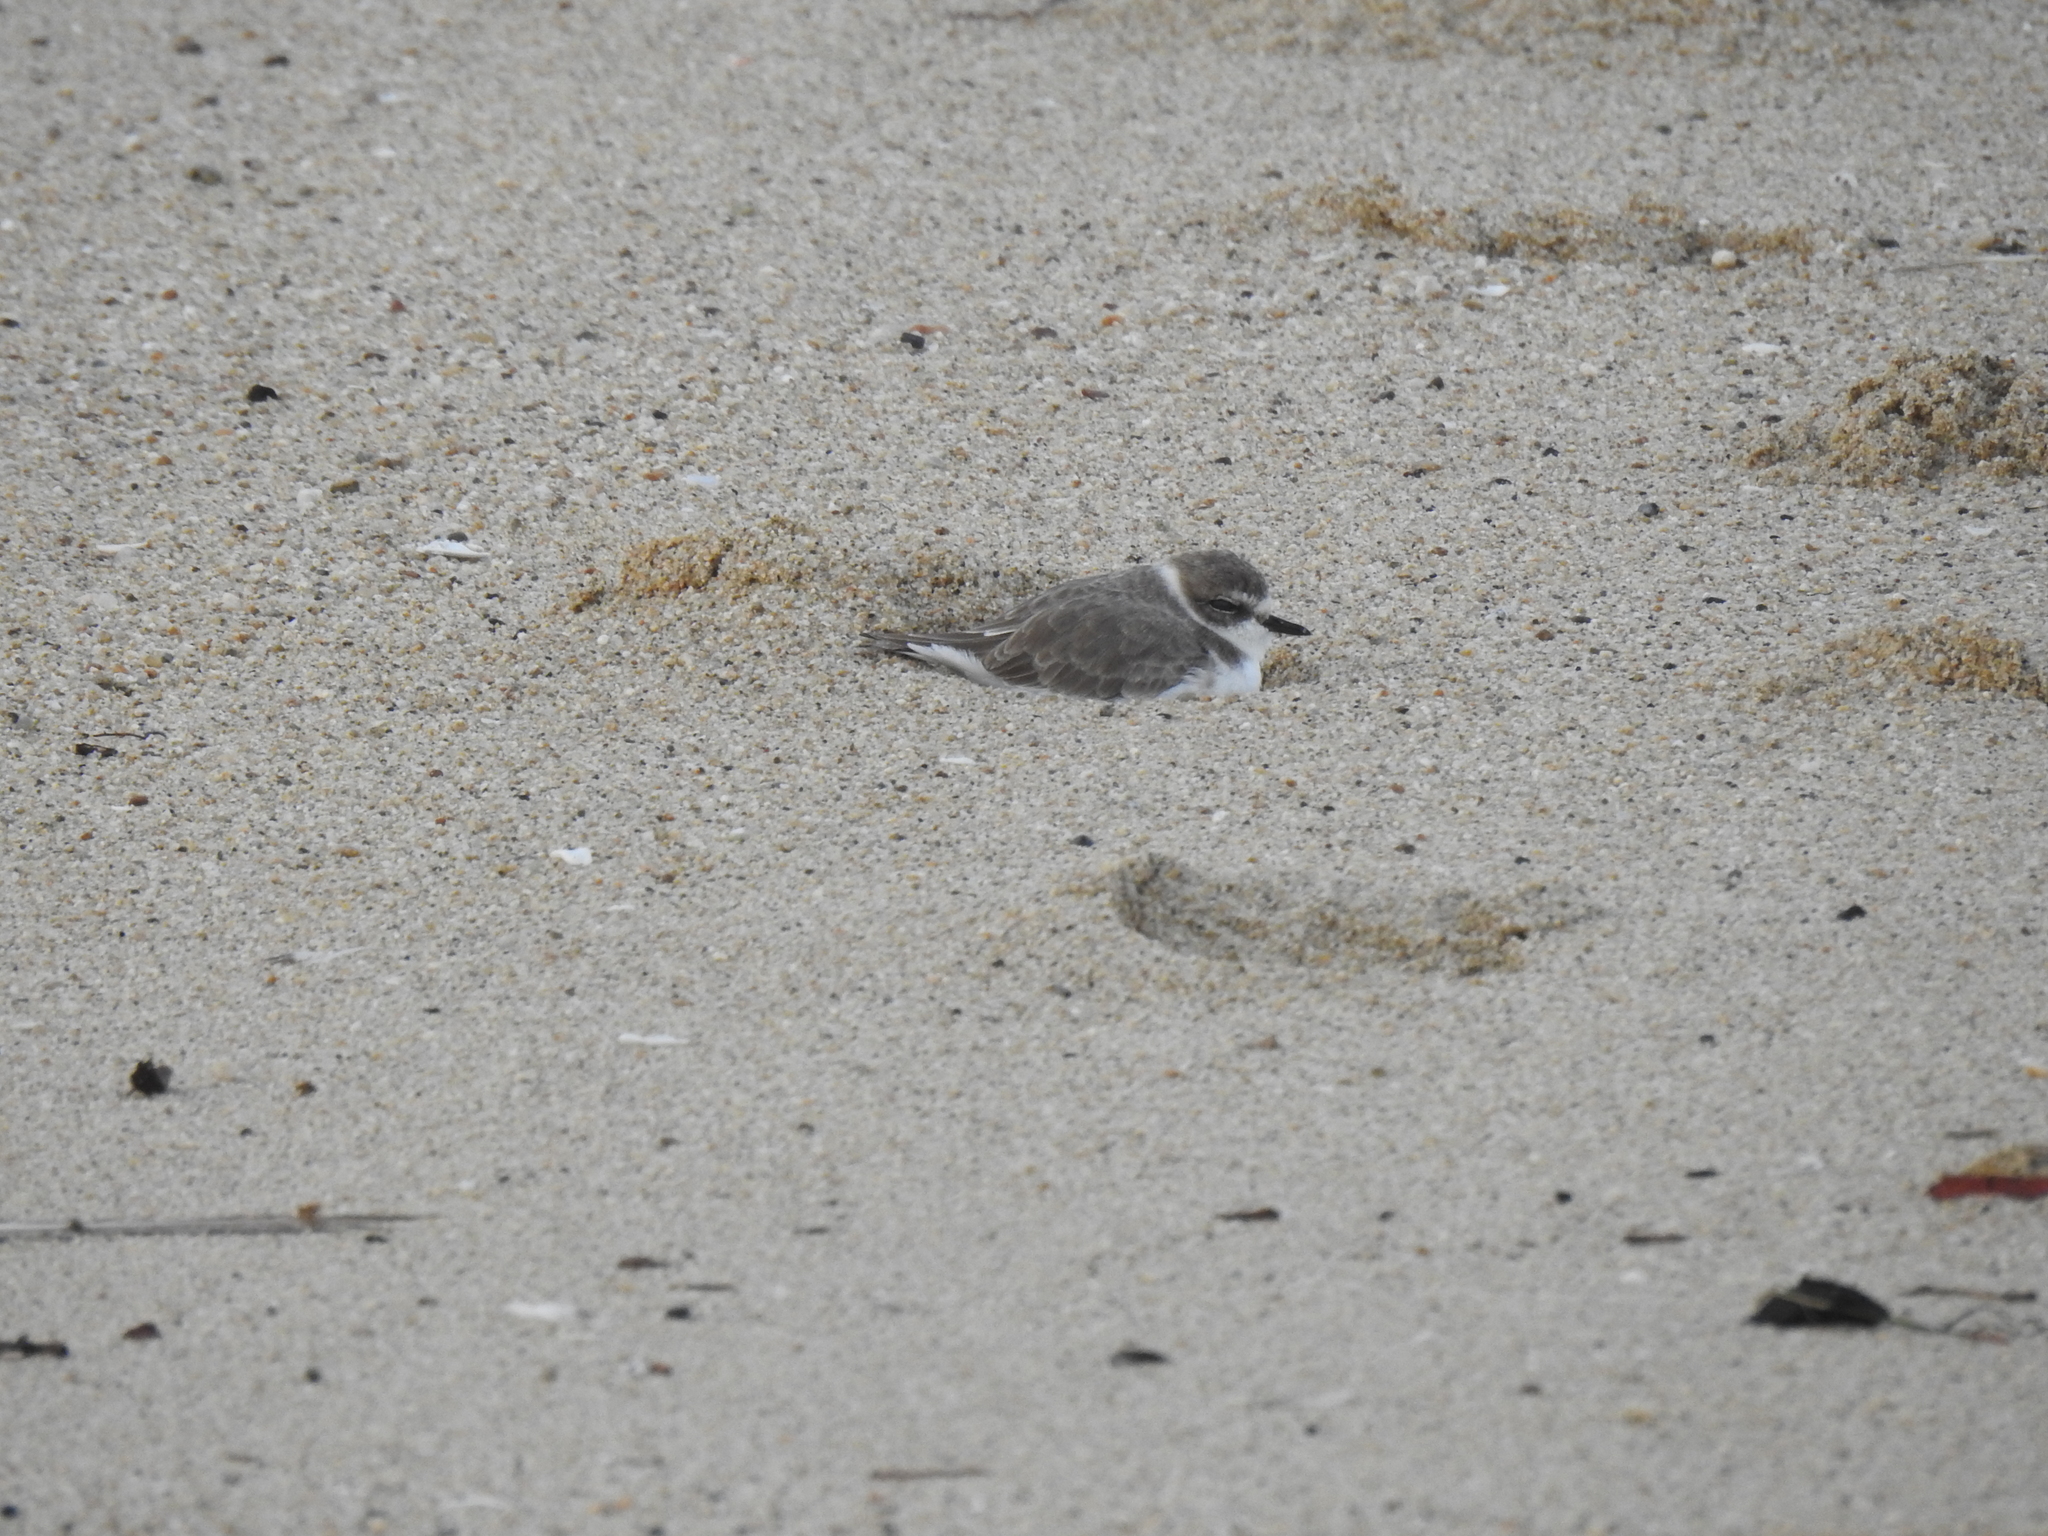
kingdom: Animalia
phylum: Chordata
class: Aves
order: Charadriiformes
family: Charadriidae
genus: Anarhynchus
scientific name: Anarhynchus
